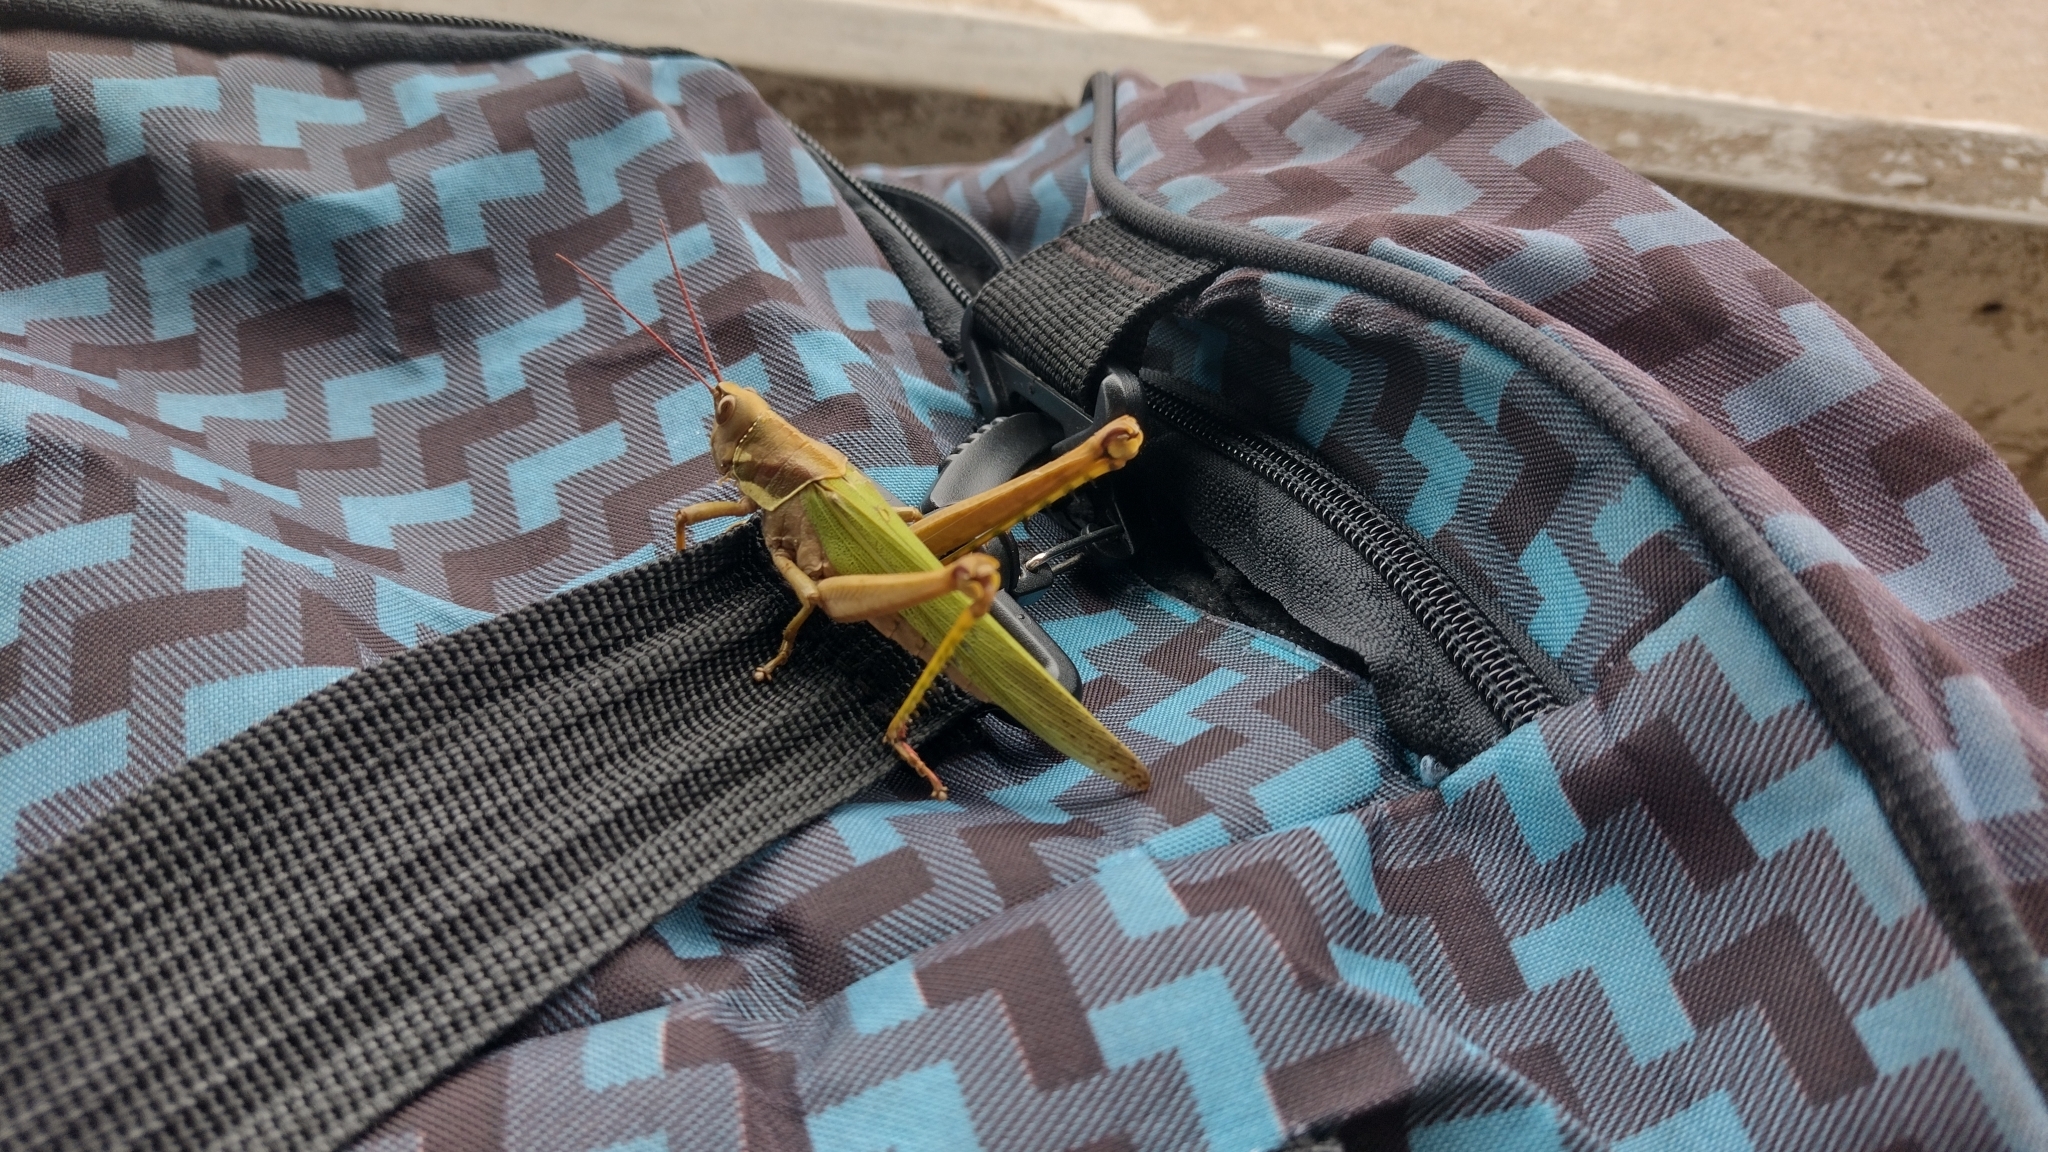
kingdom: Animalia
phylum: Arthropoda
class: Insecta
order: Orthoptera
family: Romaleidae
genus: Coryacris
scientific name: Coryacris angustipennis
